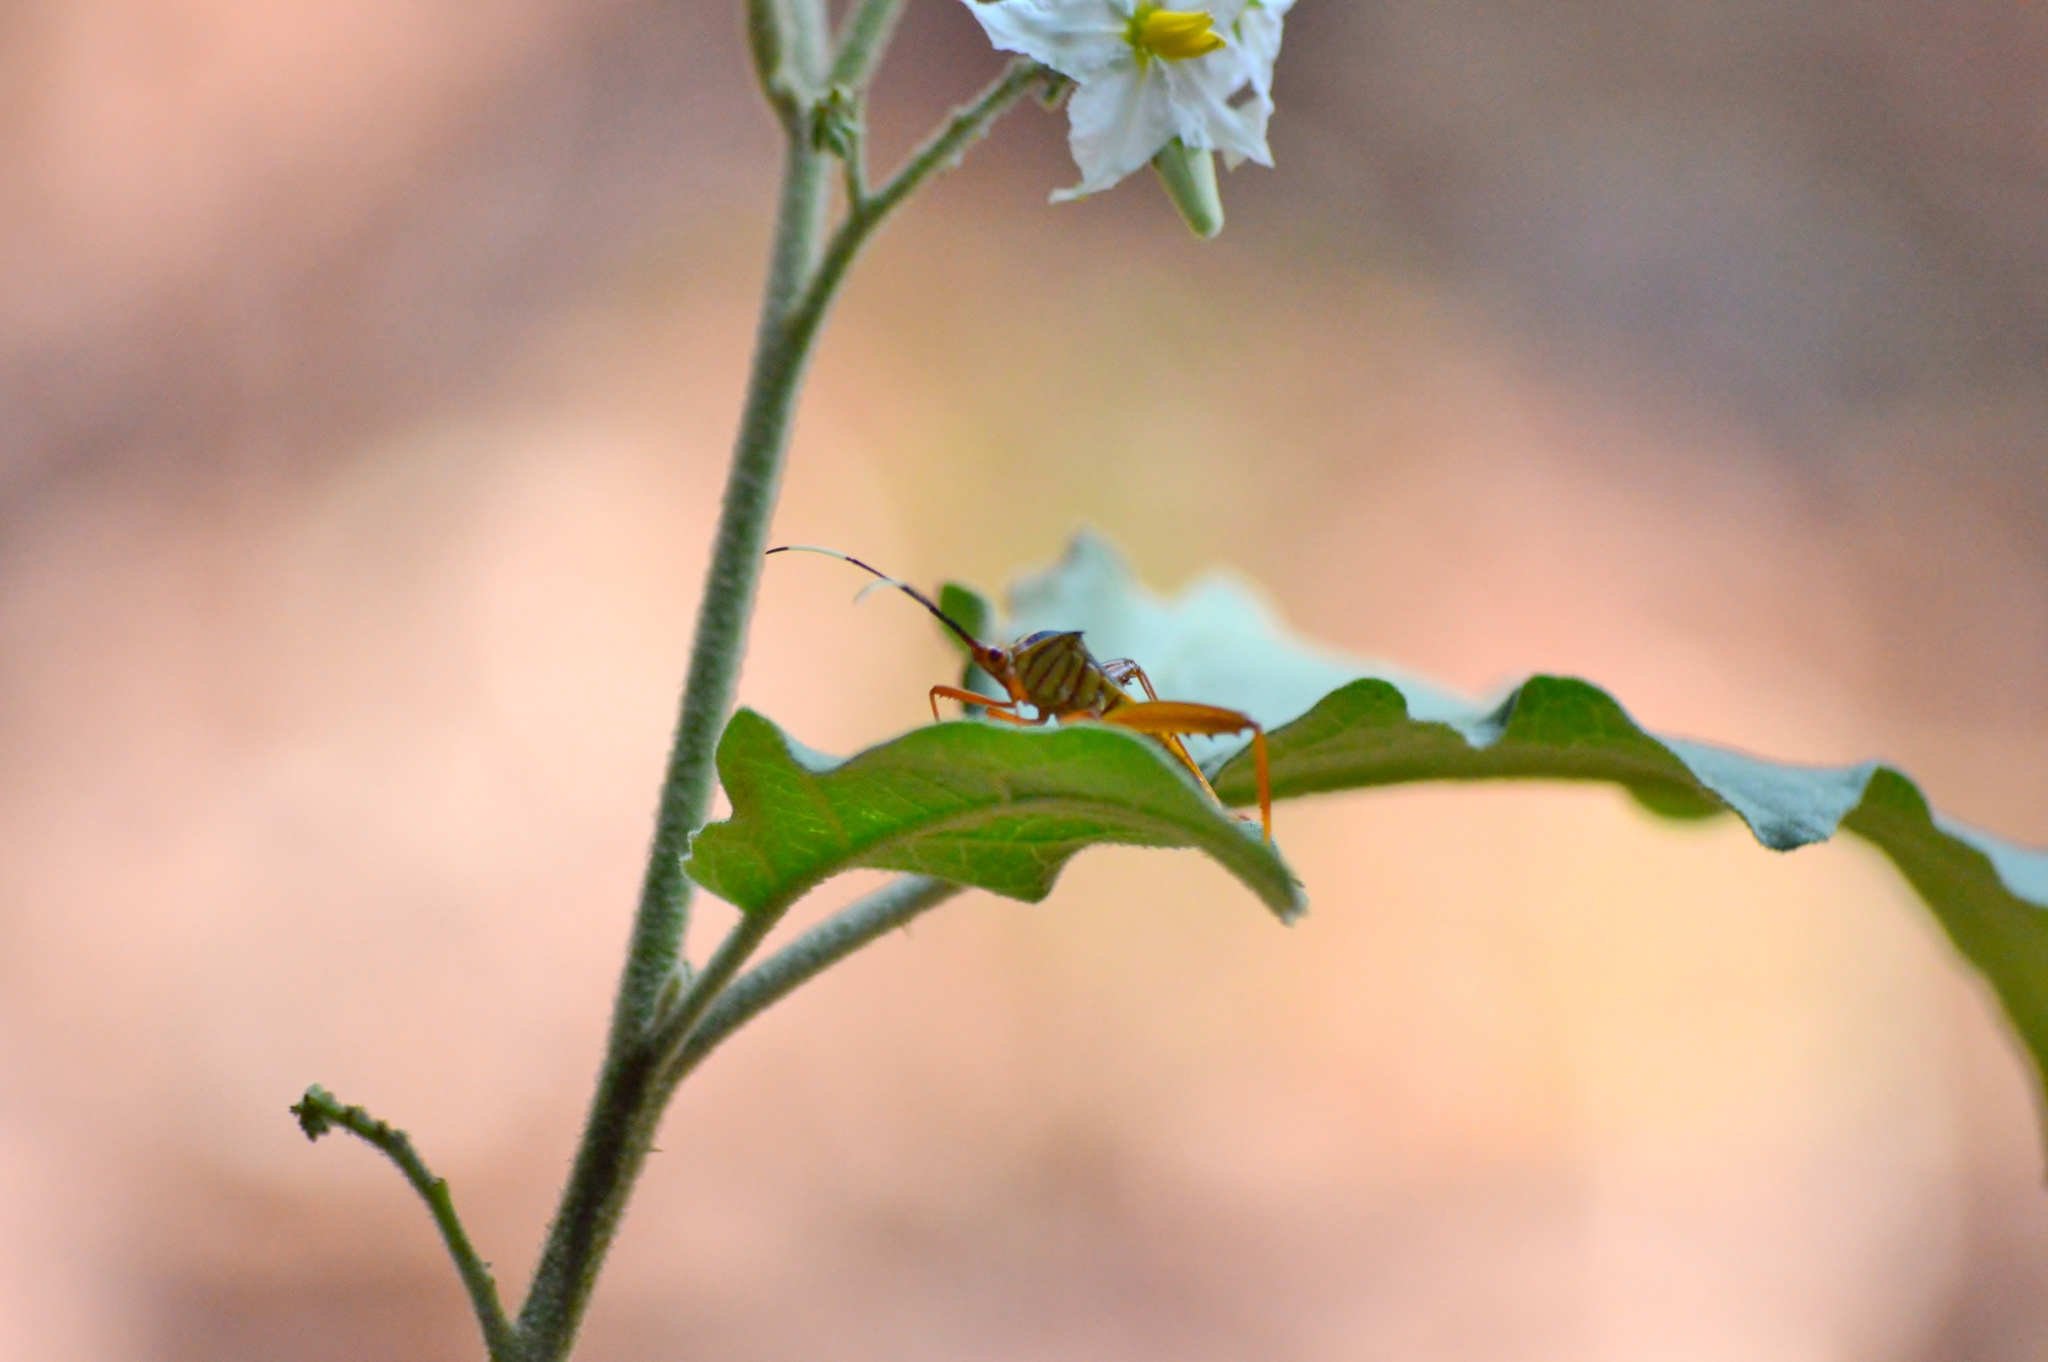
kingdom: Animalia
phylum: Arthropoda
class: Insecta
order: Hemiptera
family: Coreidae
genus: Lucullia
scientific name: Lucullia flavovittata
